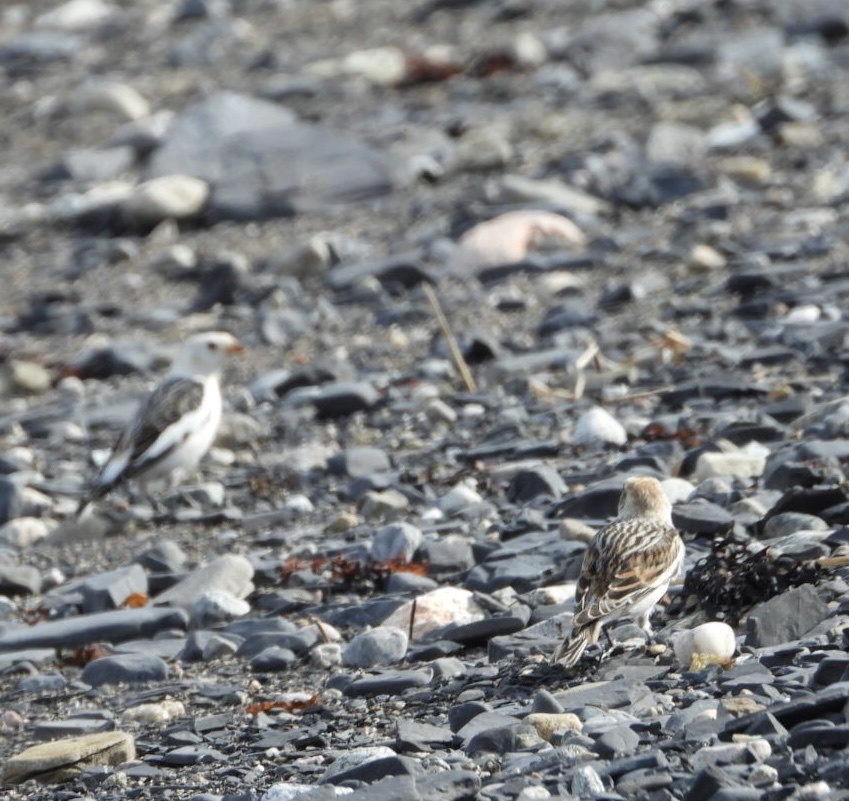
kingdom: Animalia
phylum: Chordata
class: Aves
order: Passeriformes
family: Calcariidae
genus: Plectrophenax
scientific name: Plectrophenax nivalis
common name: Snow bunting
